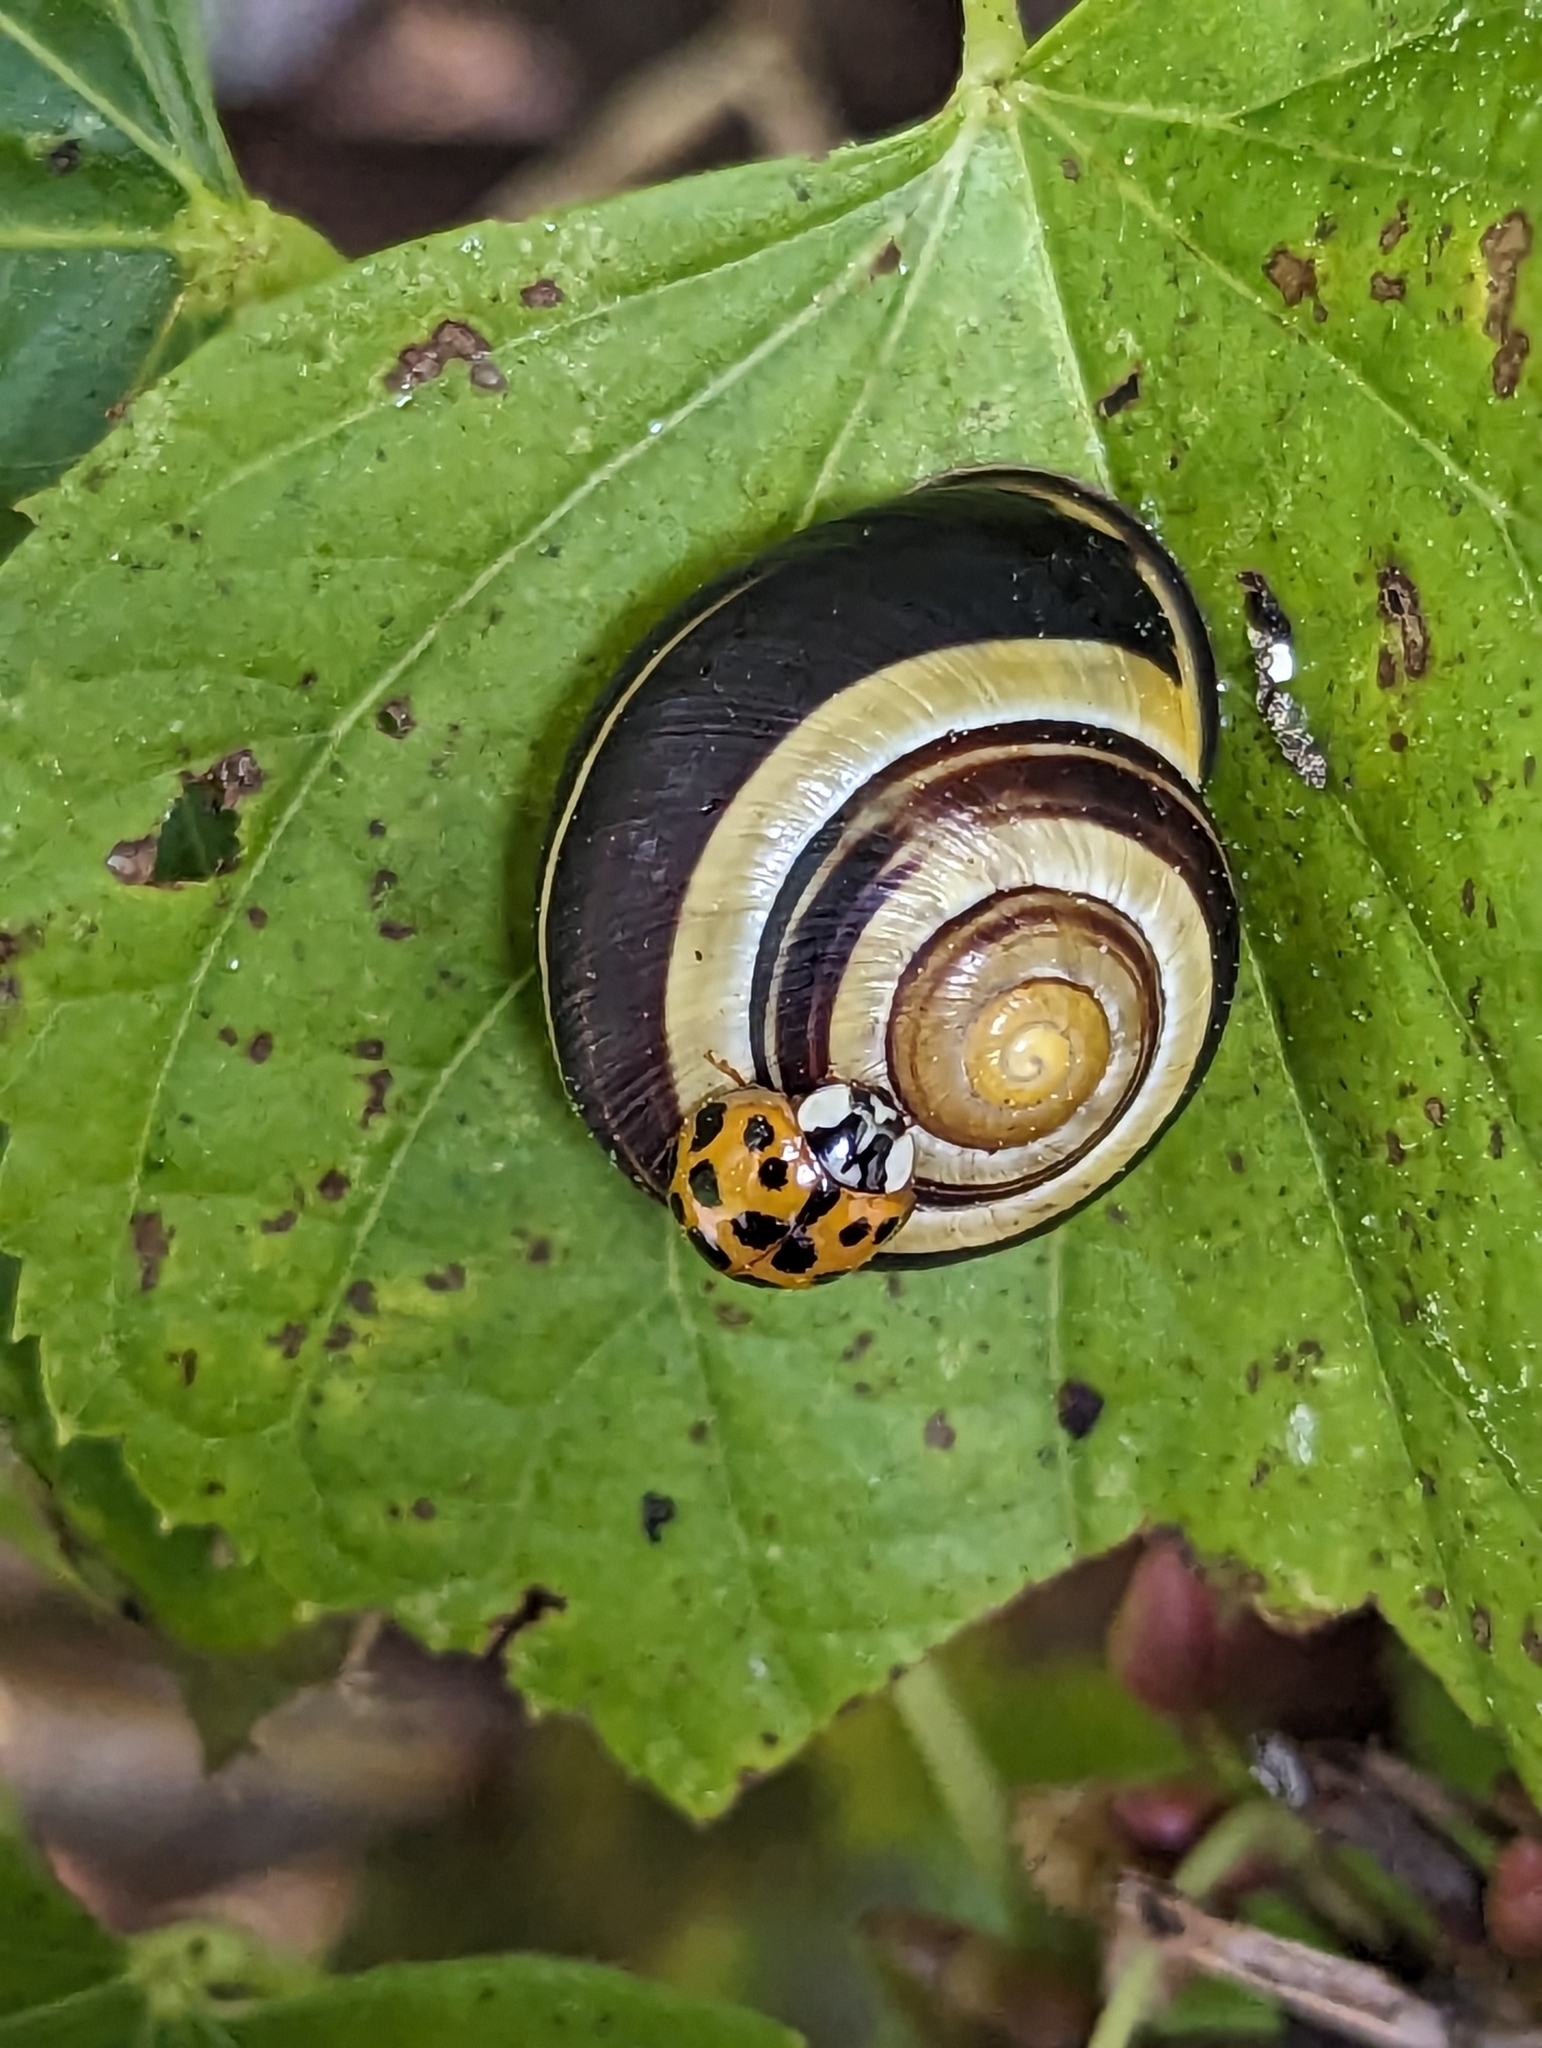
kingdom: Animalia
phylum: Arthropoda
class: Insecta
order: Coleoptera
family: Coccinellidae
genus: Harmonia
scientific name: Harmonia axyridis
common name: Harlequin ladybird
